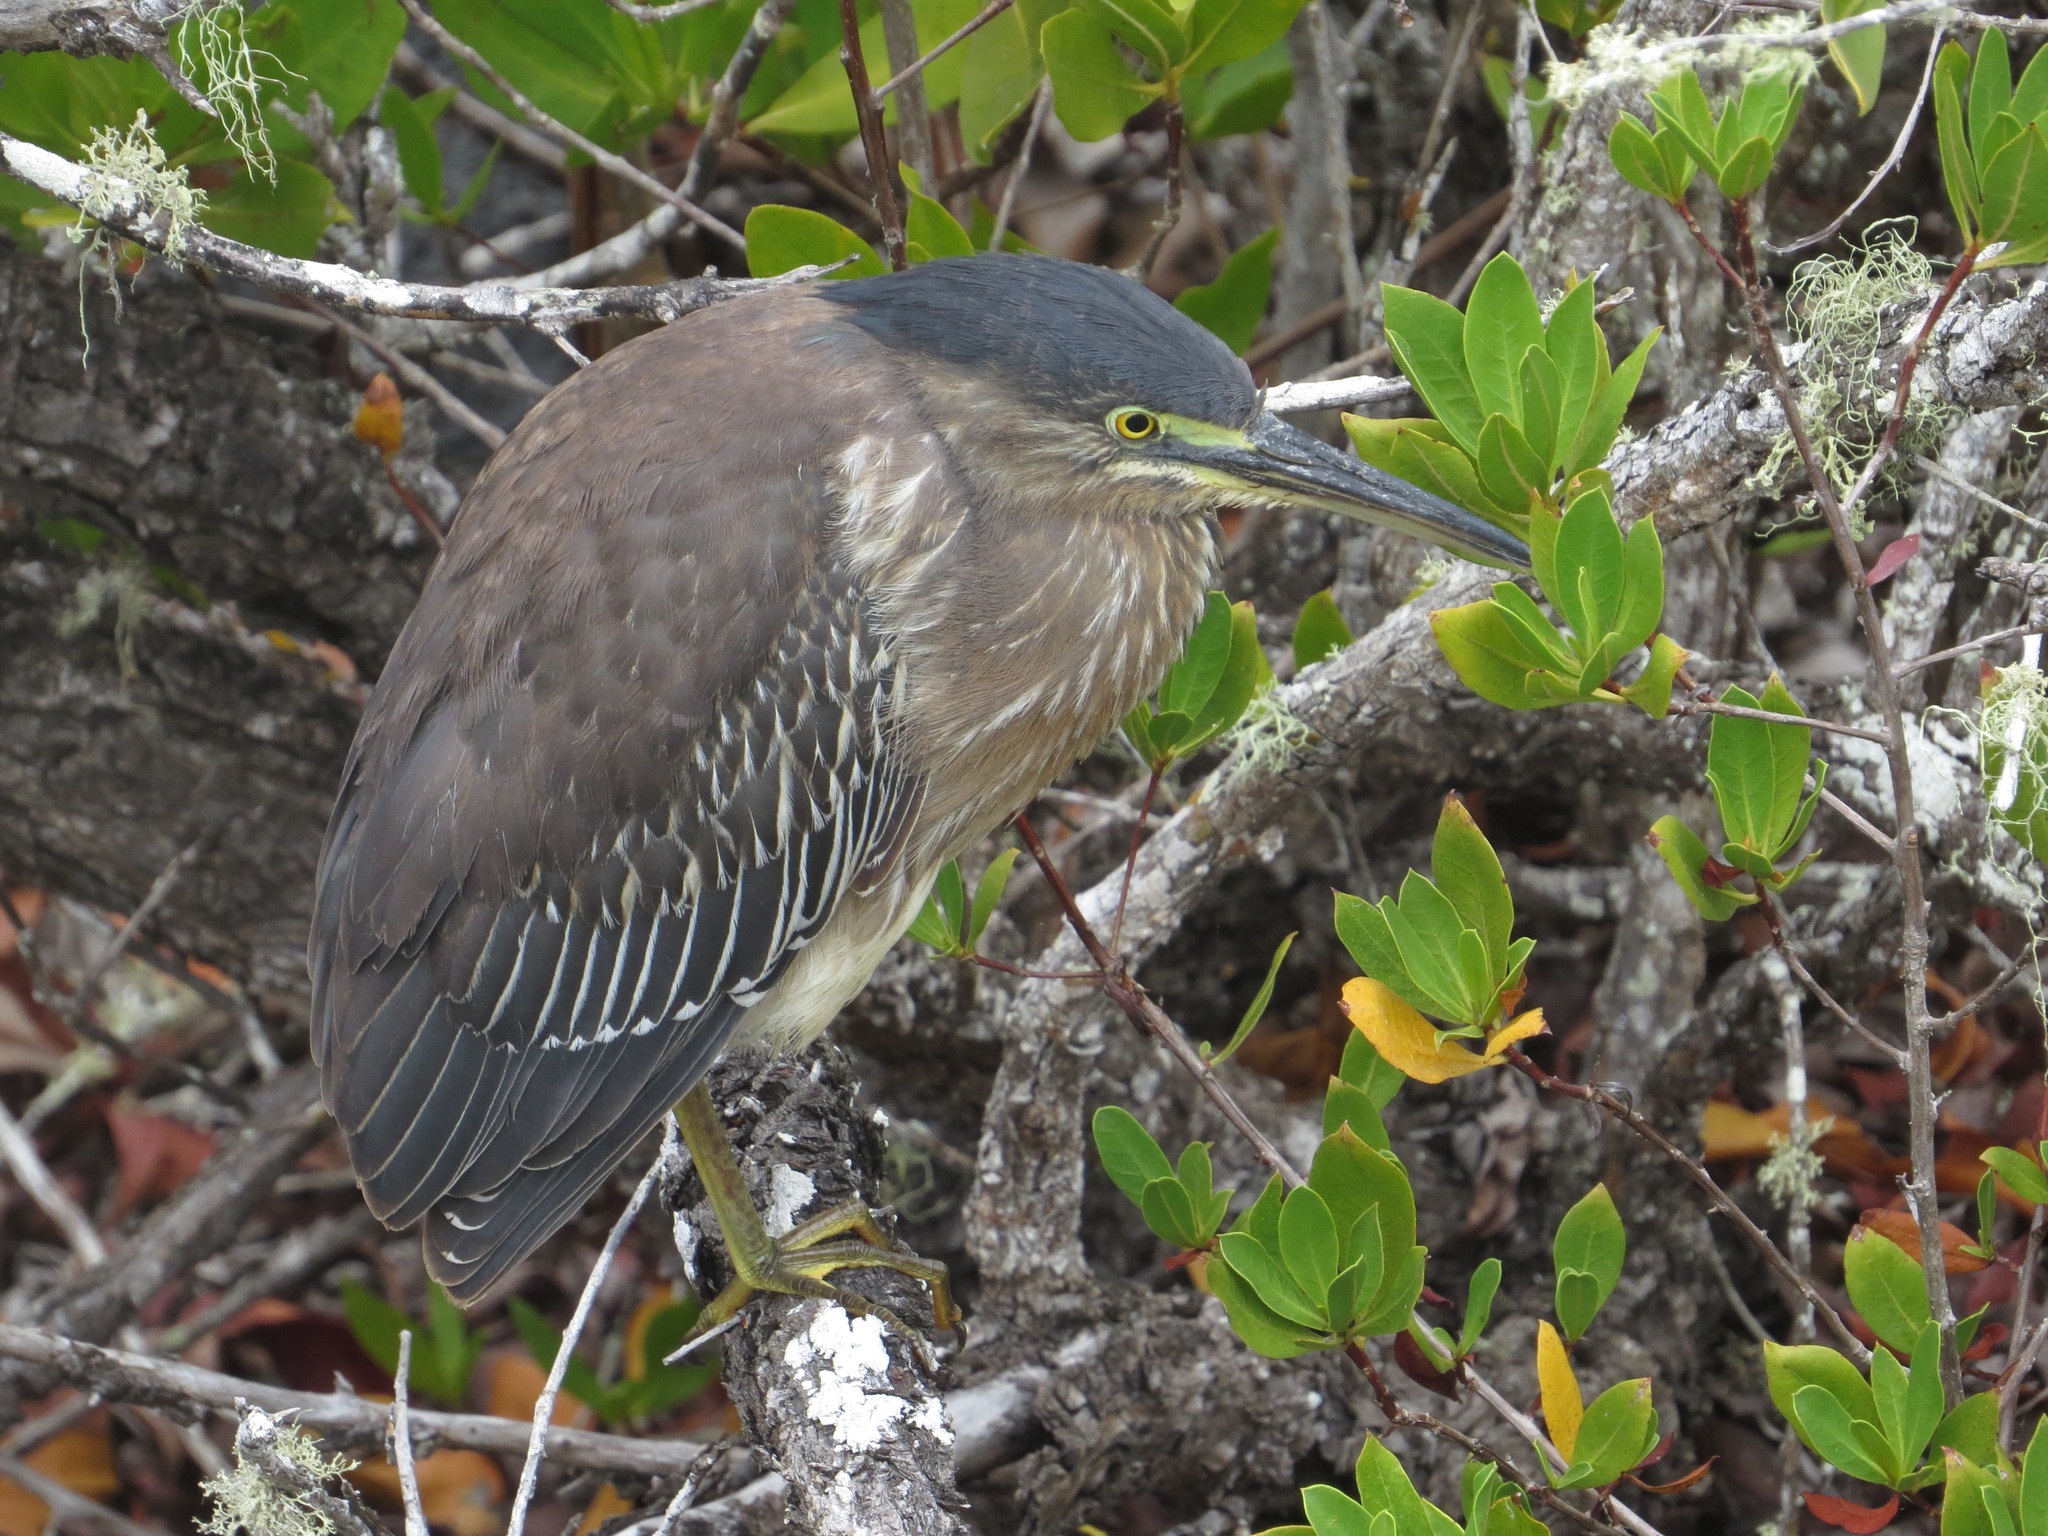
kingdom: Animalia
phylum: Chordata
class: Aves
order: Pelecaniformes
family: Ardeidae
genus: Butorides
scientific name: Butorides striata
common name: Striated heron
